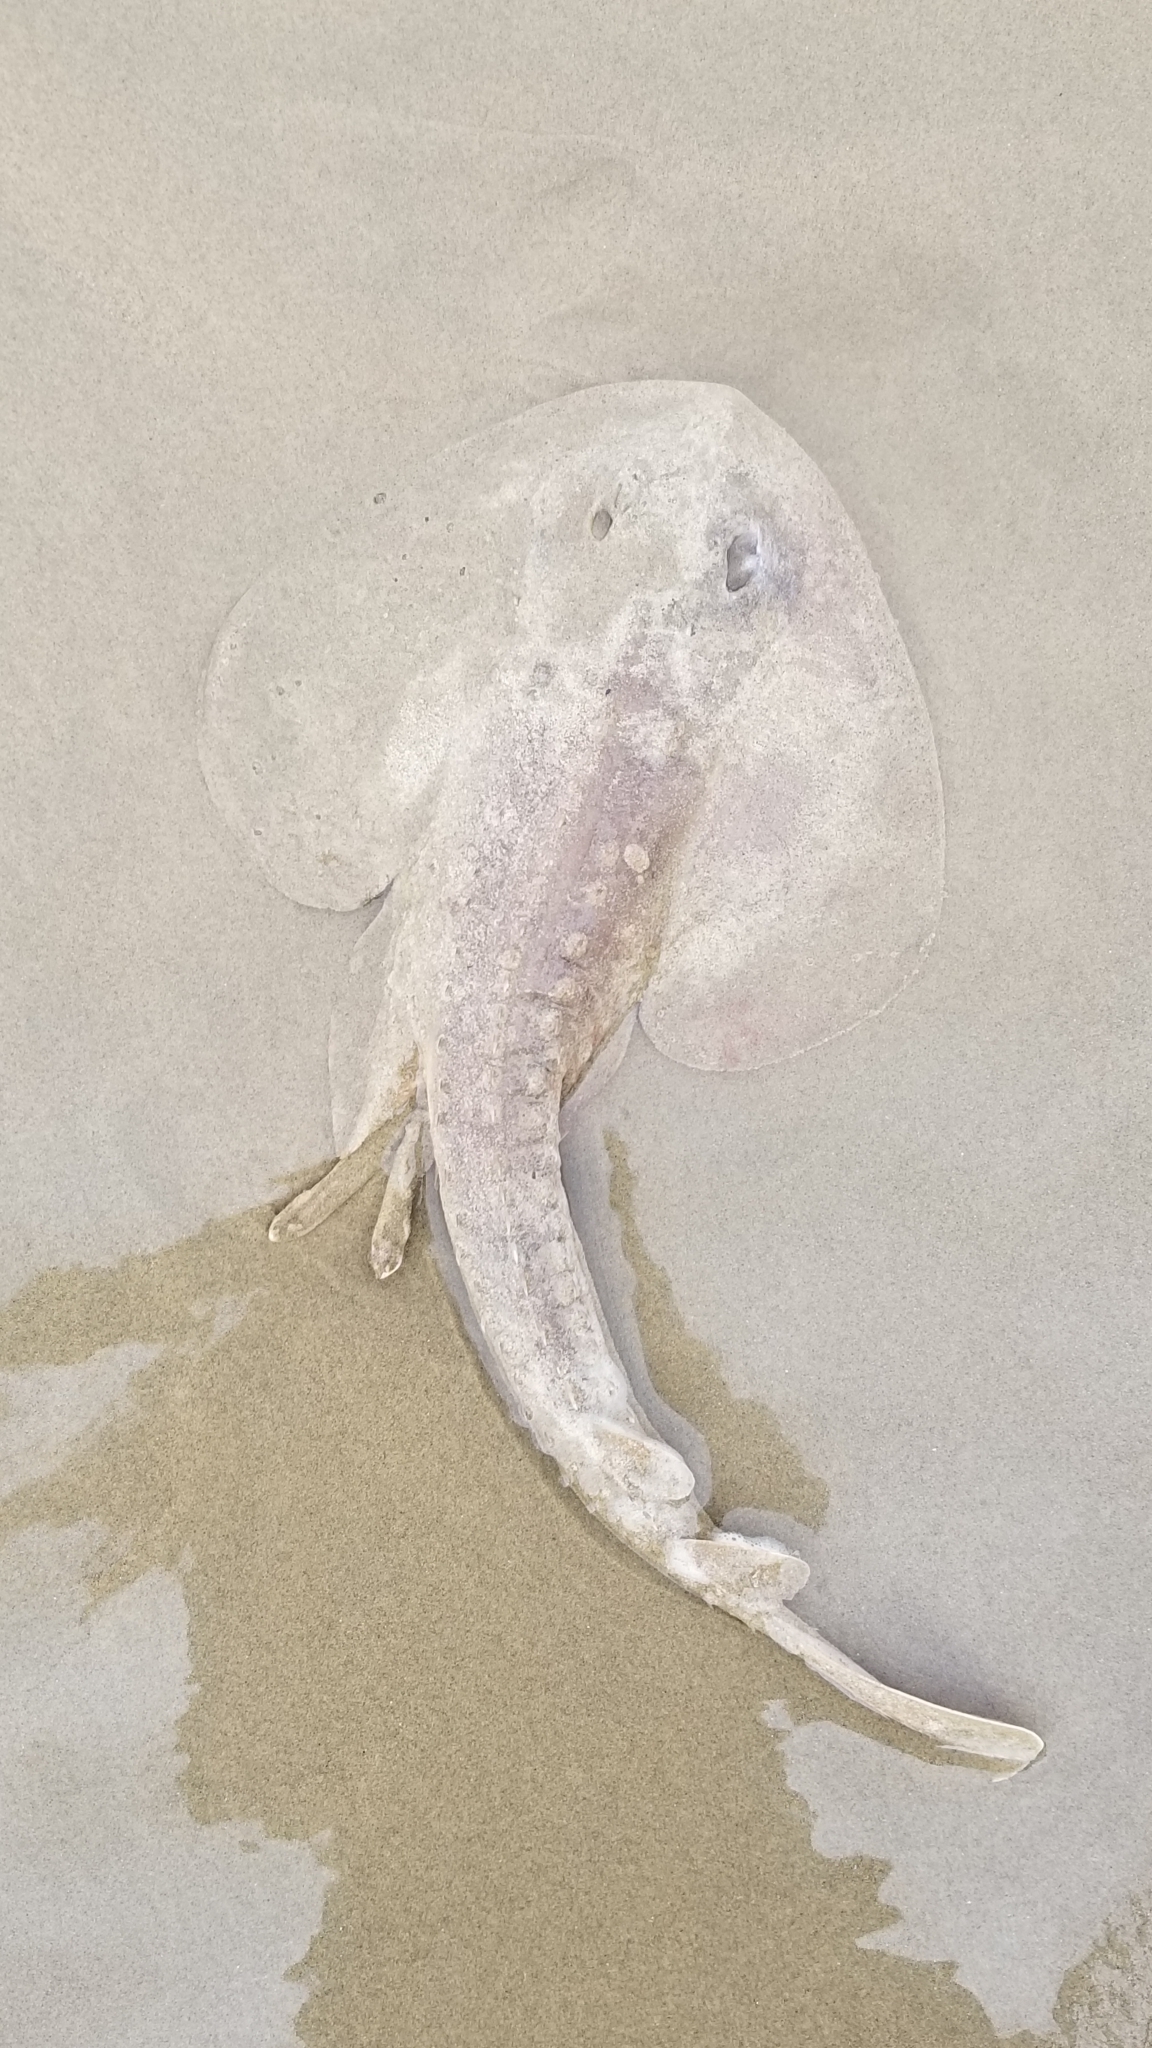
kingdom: Animalia
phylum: Chordata
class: Elasmobranchii
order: Rhinopristiformes
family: Rhinobatidae
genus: Platyrhinoidis
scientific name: Platyrhinoidis triseriata
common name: Thornback
